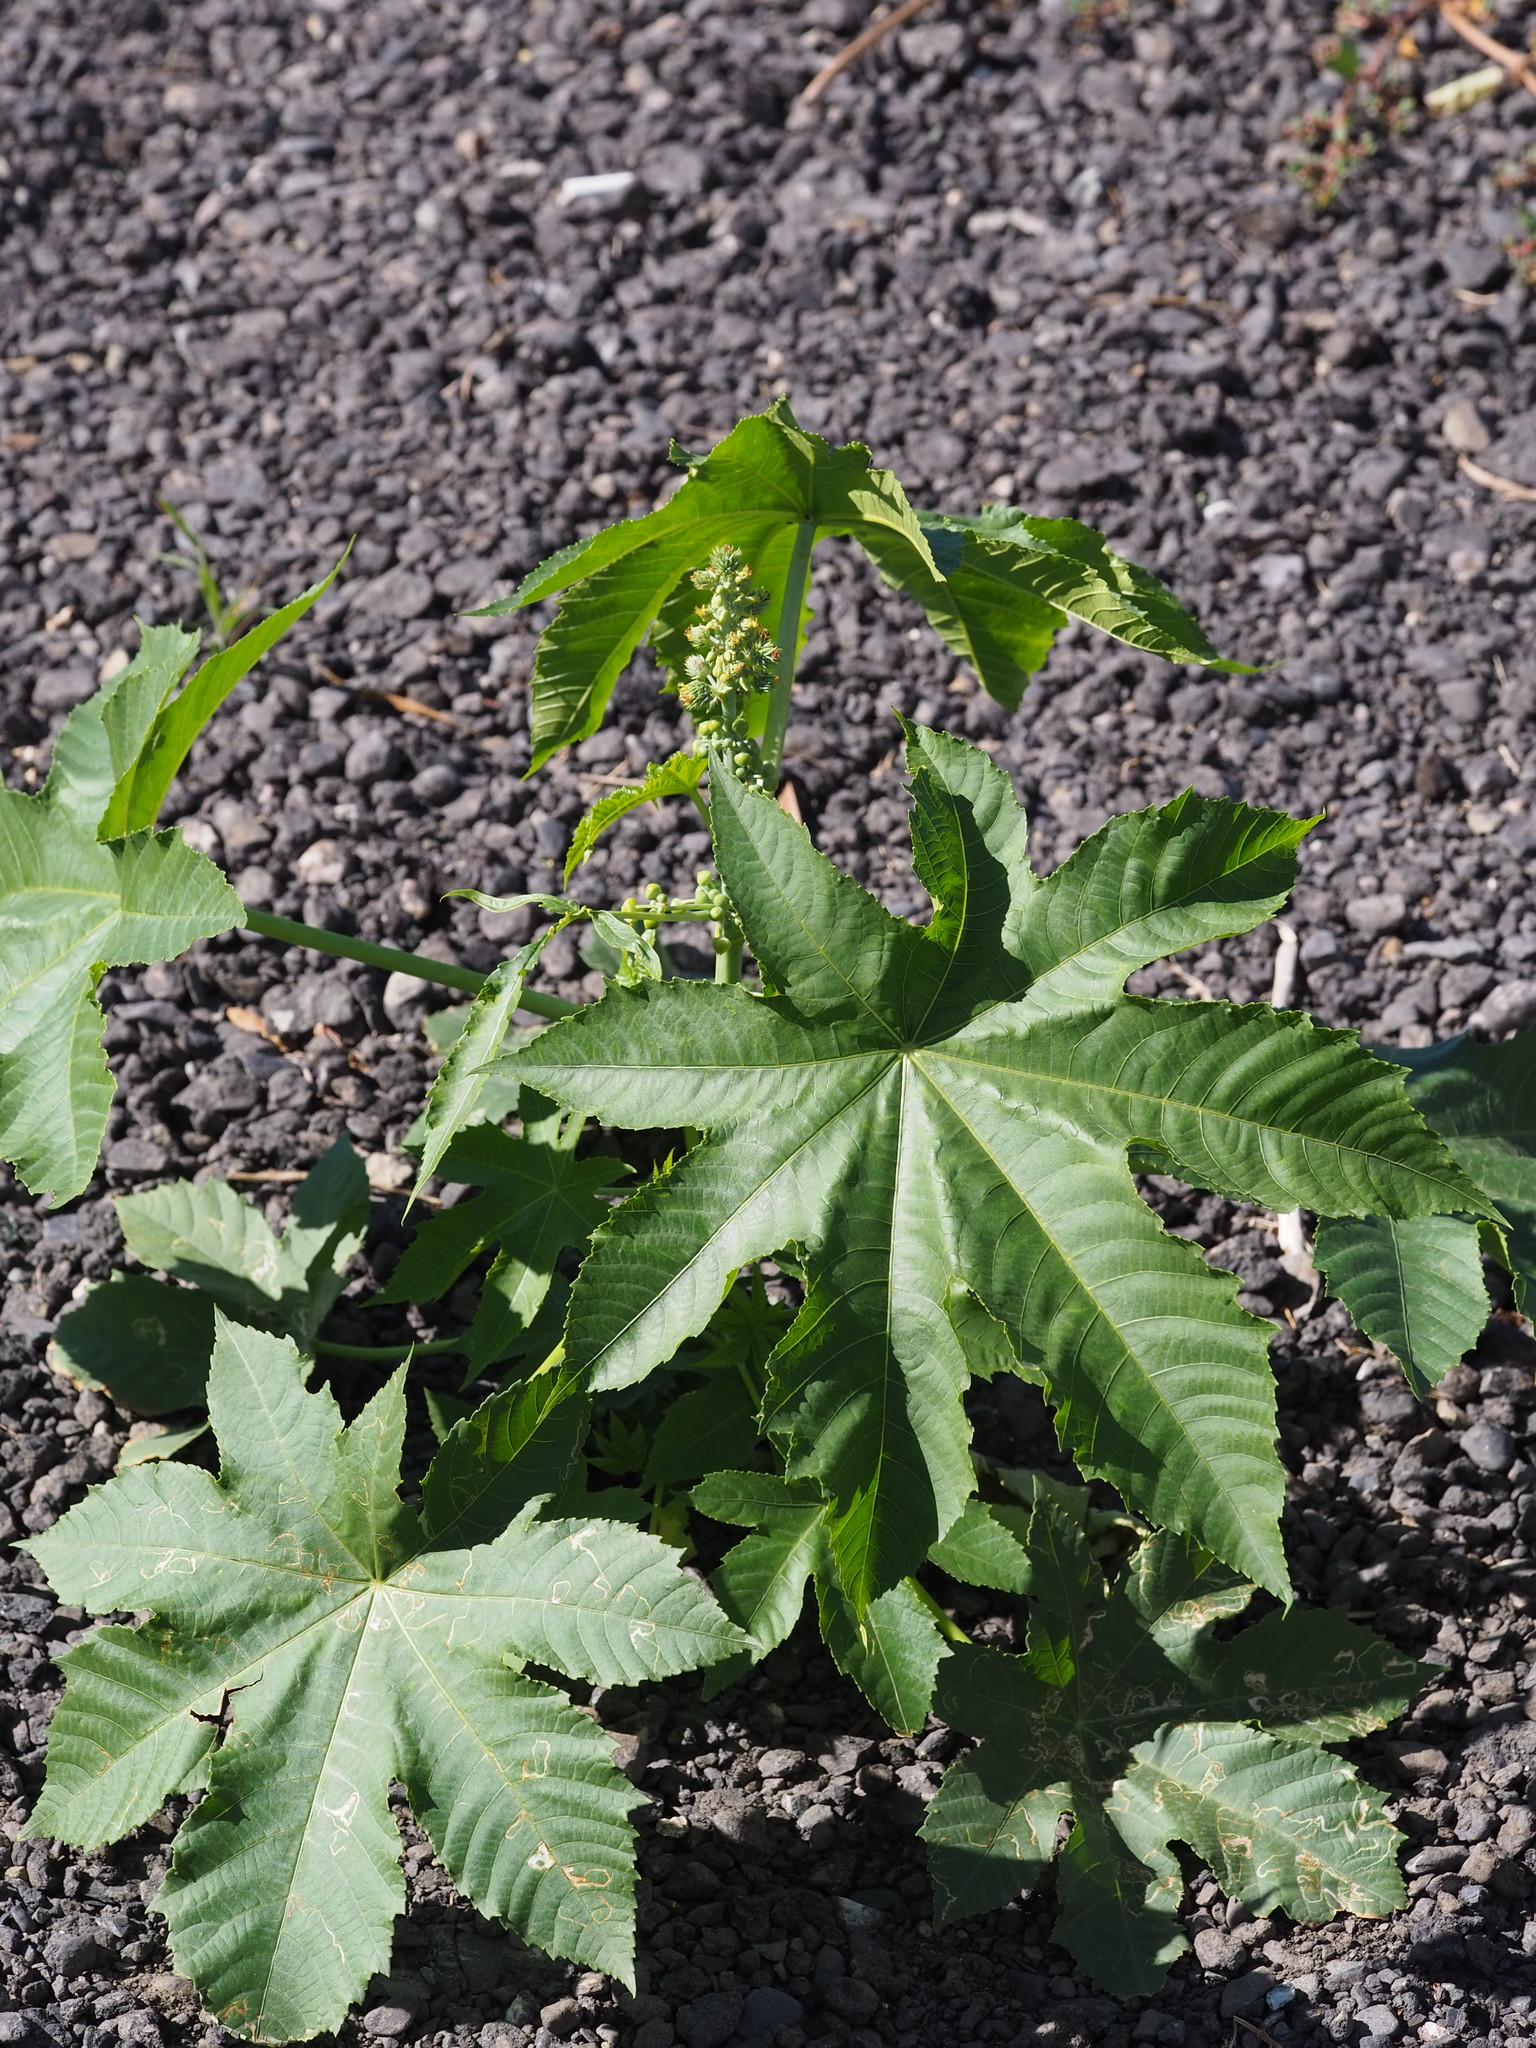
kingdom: Plantae
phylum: Tracheophyta
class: Magnoliopsida
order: Malpighiales
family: Euphorbiaceae
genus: Ricinus
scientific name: Ricinus communis
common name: Castor-oil-plant
